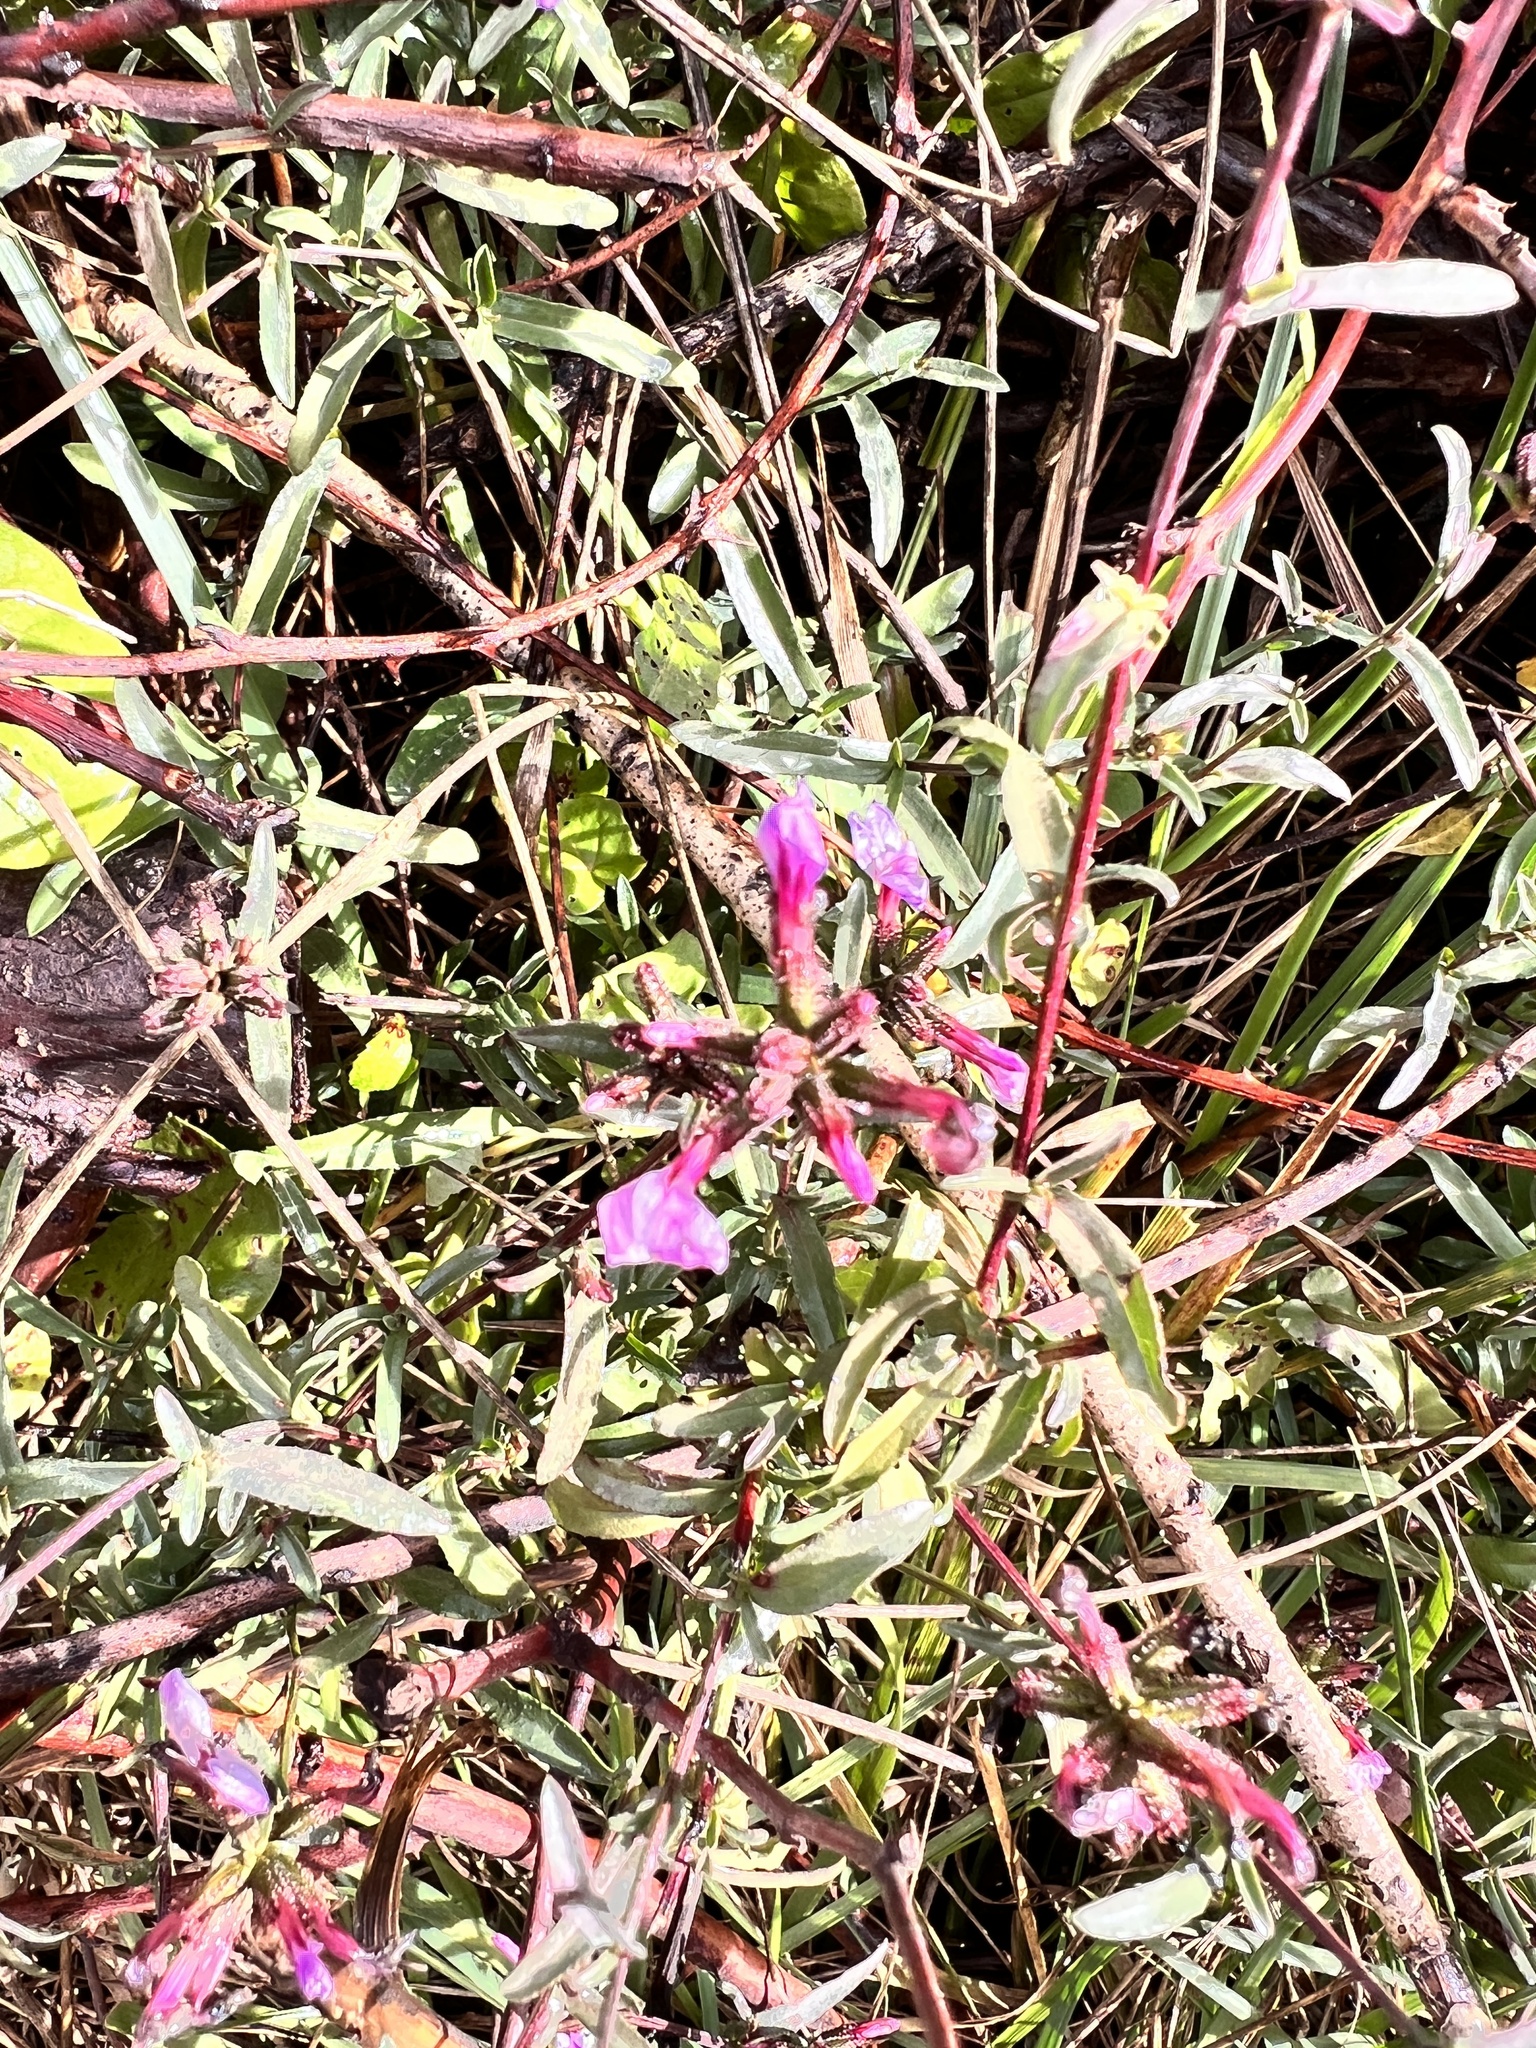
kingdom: Plantae
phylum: Tracheophyta
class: Magnoliopsida
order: Caryophyllales
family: Plumbaginaceae
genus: Plumbago
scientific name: Plumbago europaea
